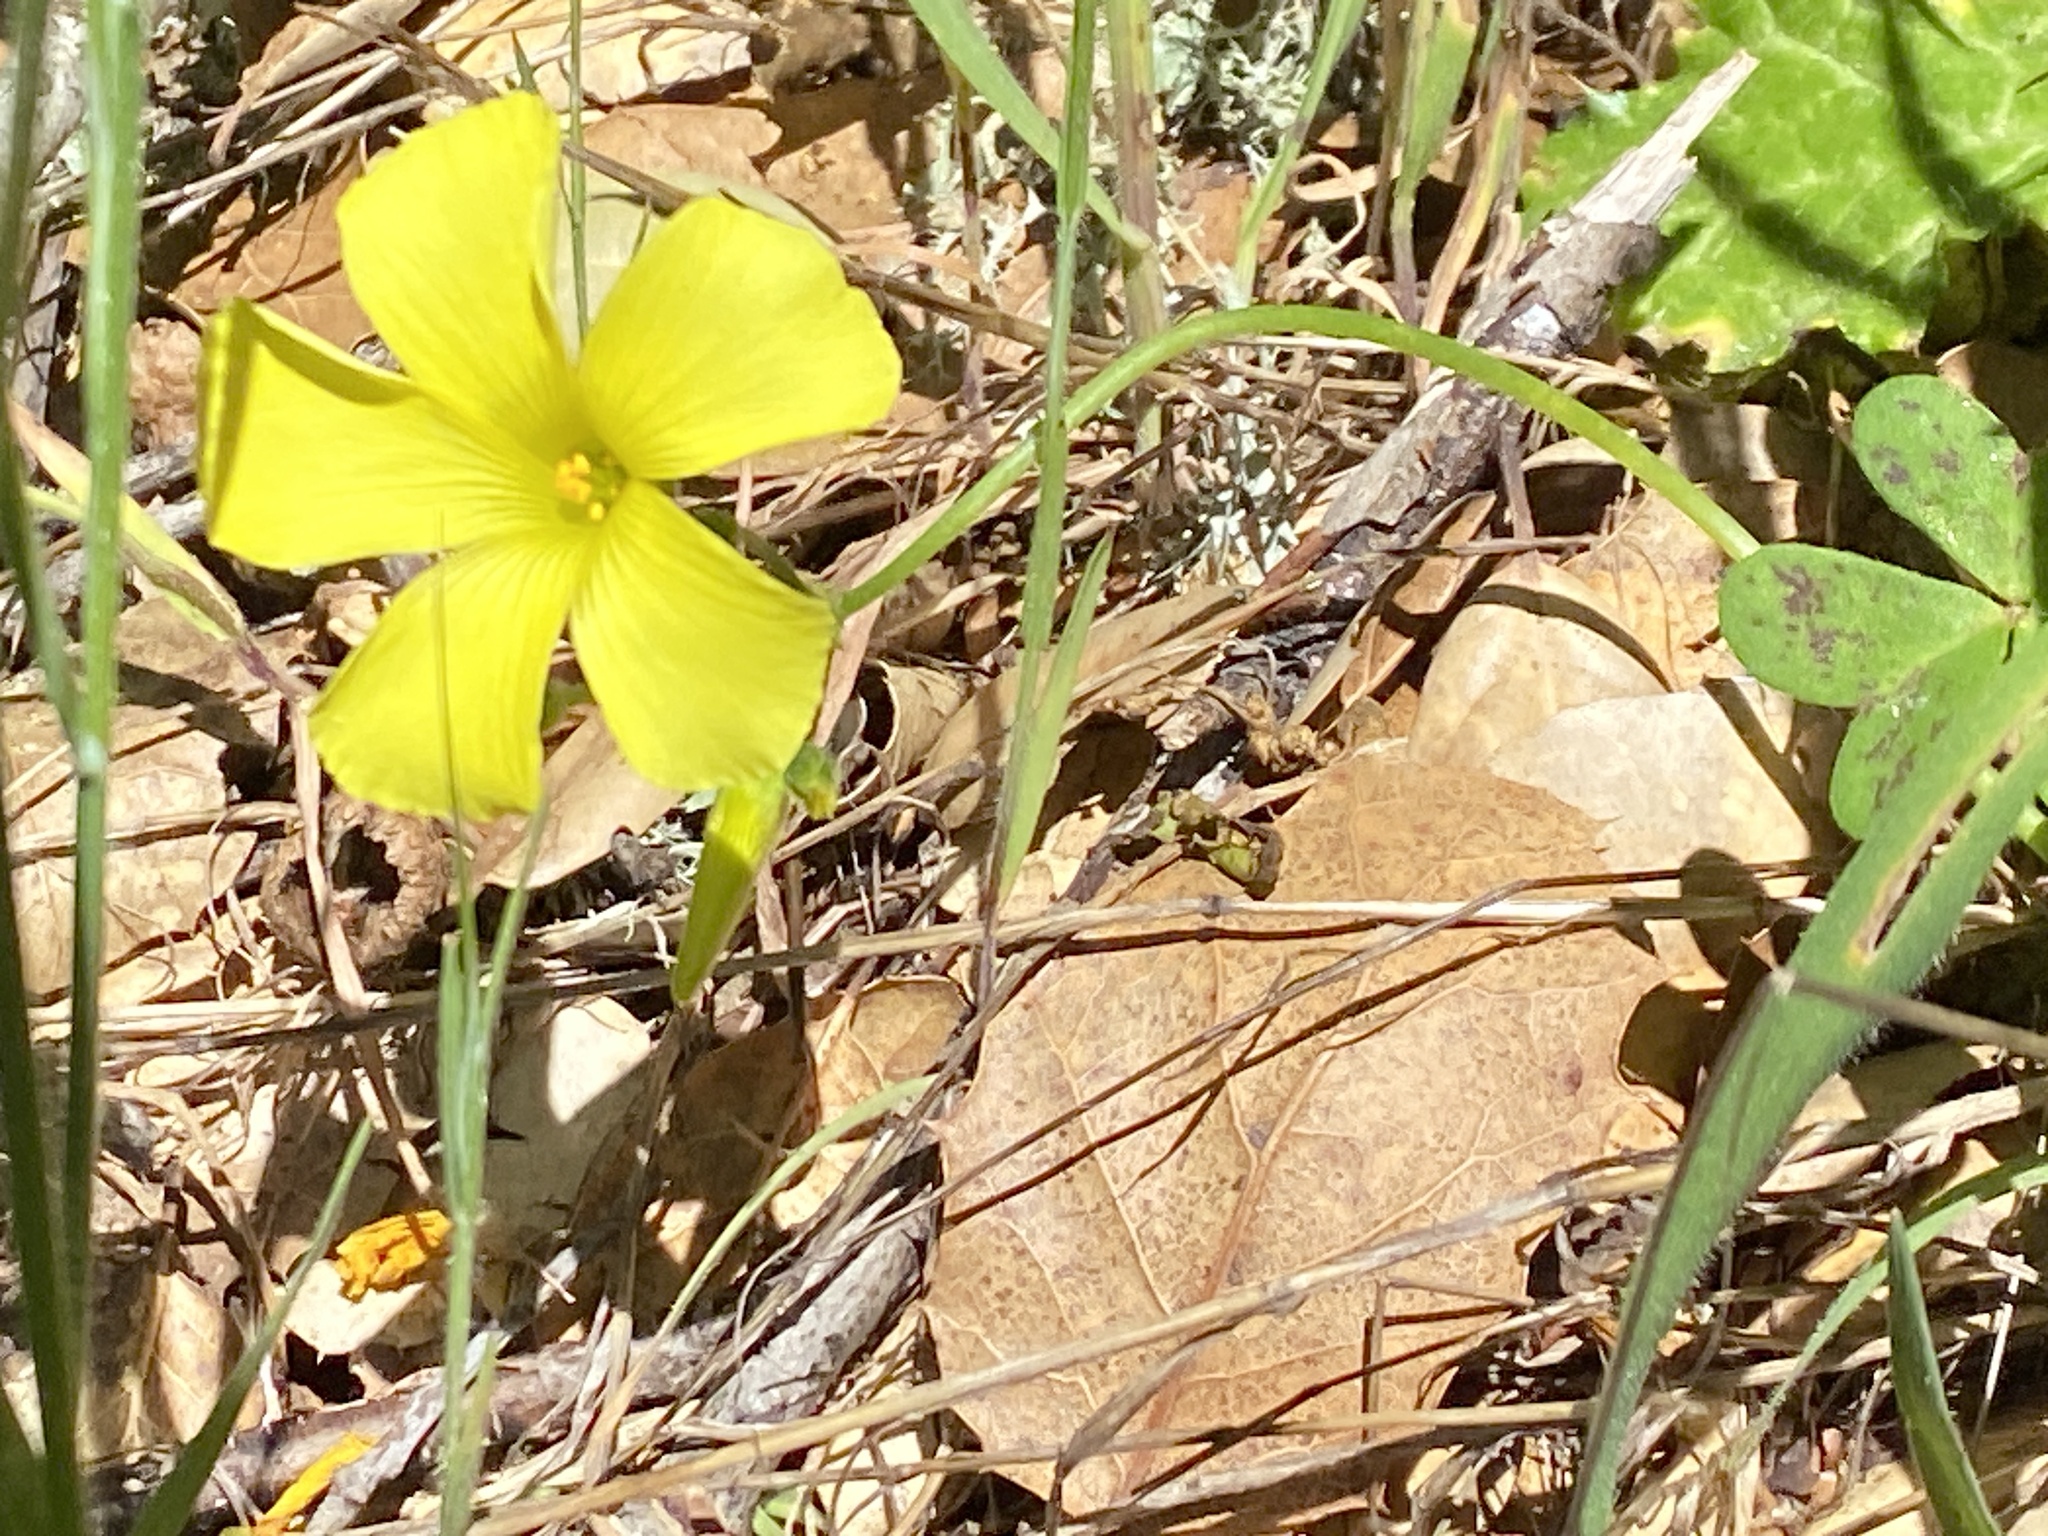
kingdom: Plantae
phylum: Tracheophyta
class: Magnoliopsida
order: Oxalidales
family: Oxalidaceae
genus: Oxalis
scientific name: Oxalis pes-caprae
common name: Bermuda-buttercup
